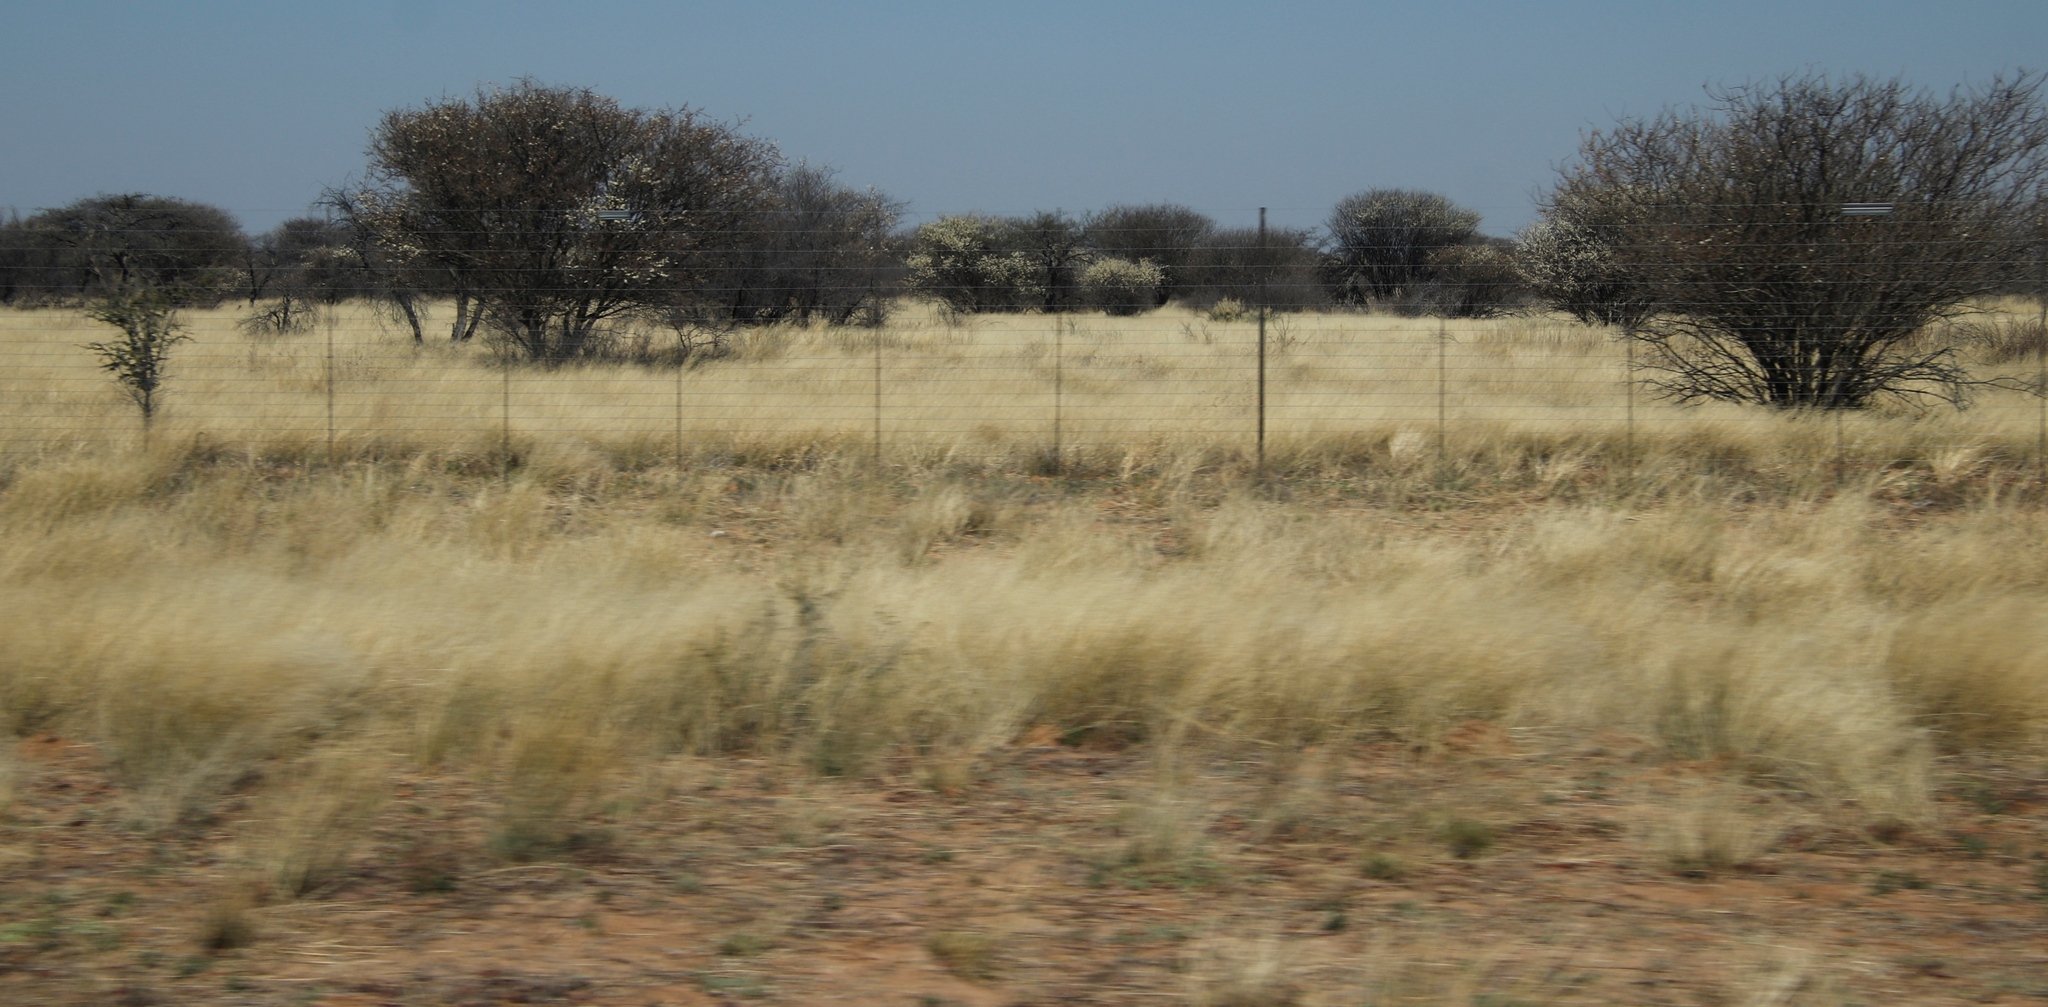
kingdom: Plantae
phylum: Tracheophyta
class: Magnoliopsida
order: Fabales
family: Fabaceae
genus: Senegalia
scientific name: Senegalia mellifera
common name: Hookthorn
